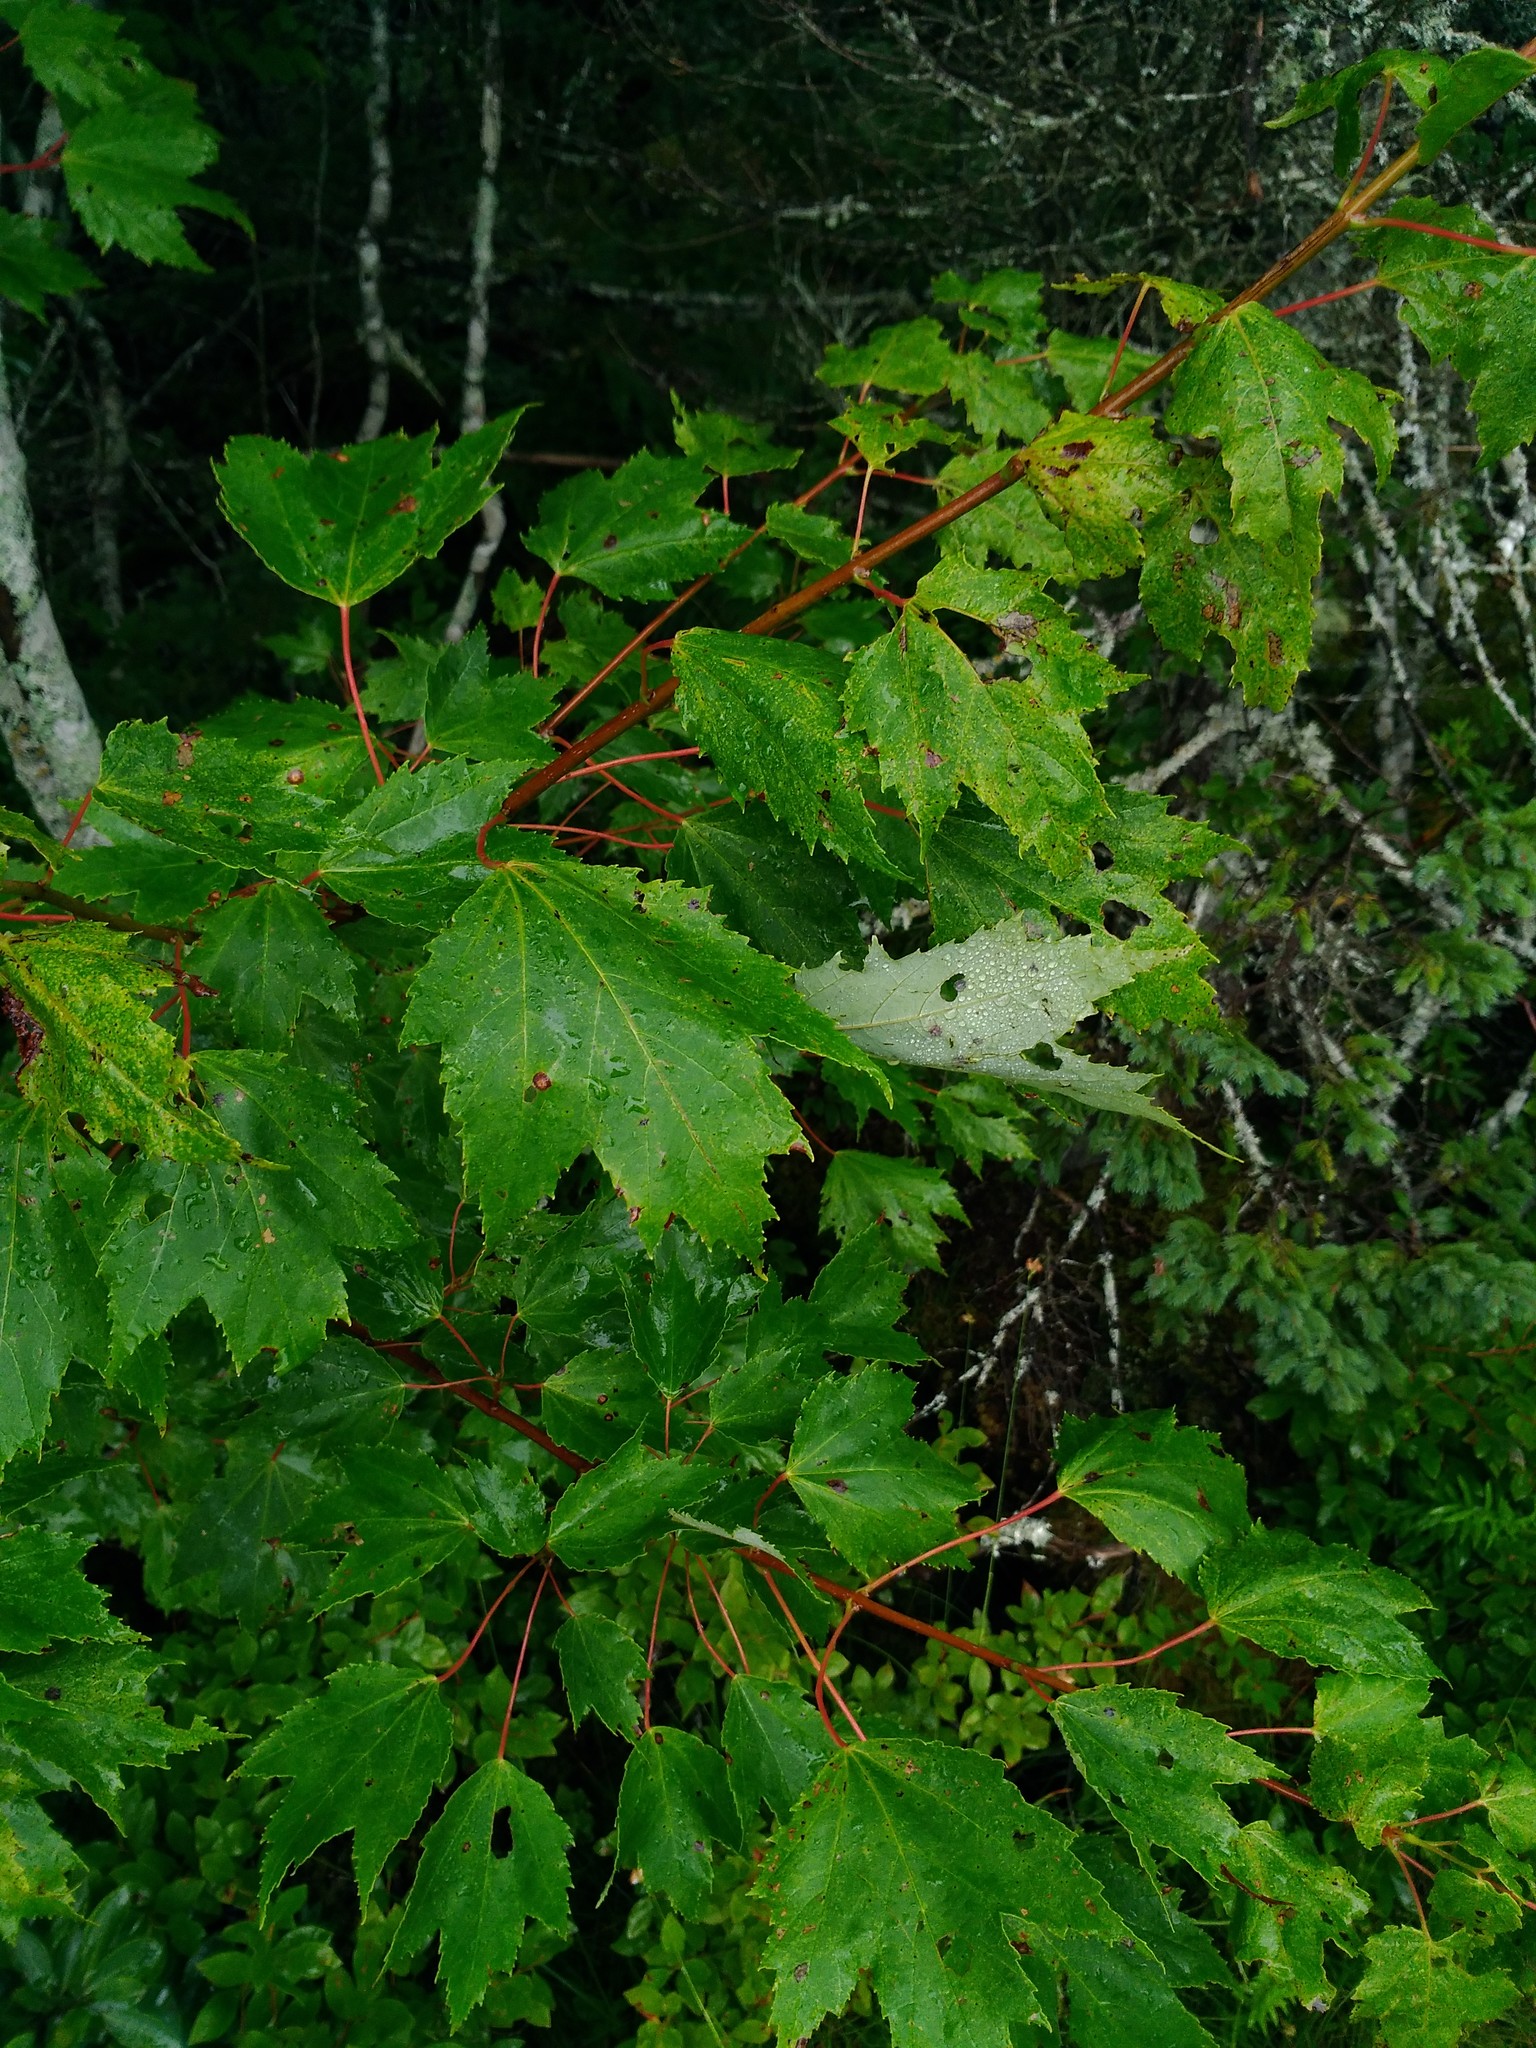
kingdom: Plantae
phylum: Tracheophyta
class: Magnoliopsida
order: Sapindales
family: Sapindaceae
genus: Acer
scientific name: Acer rubrum
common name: Red maple
